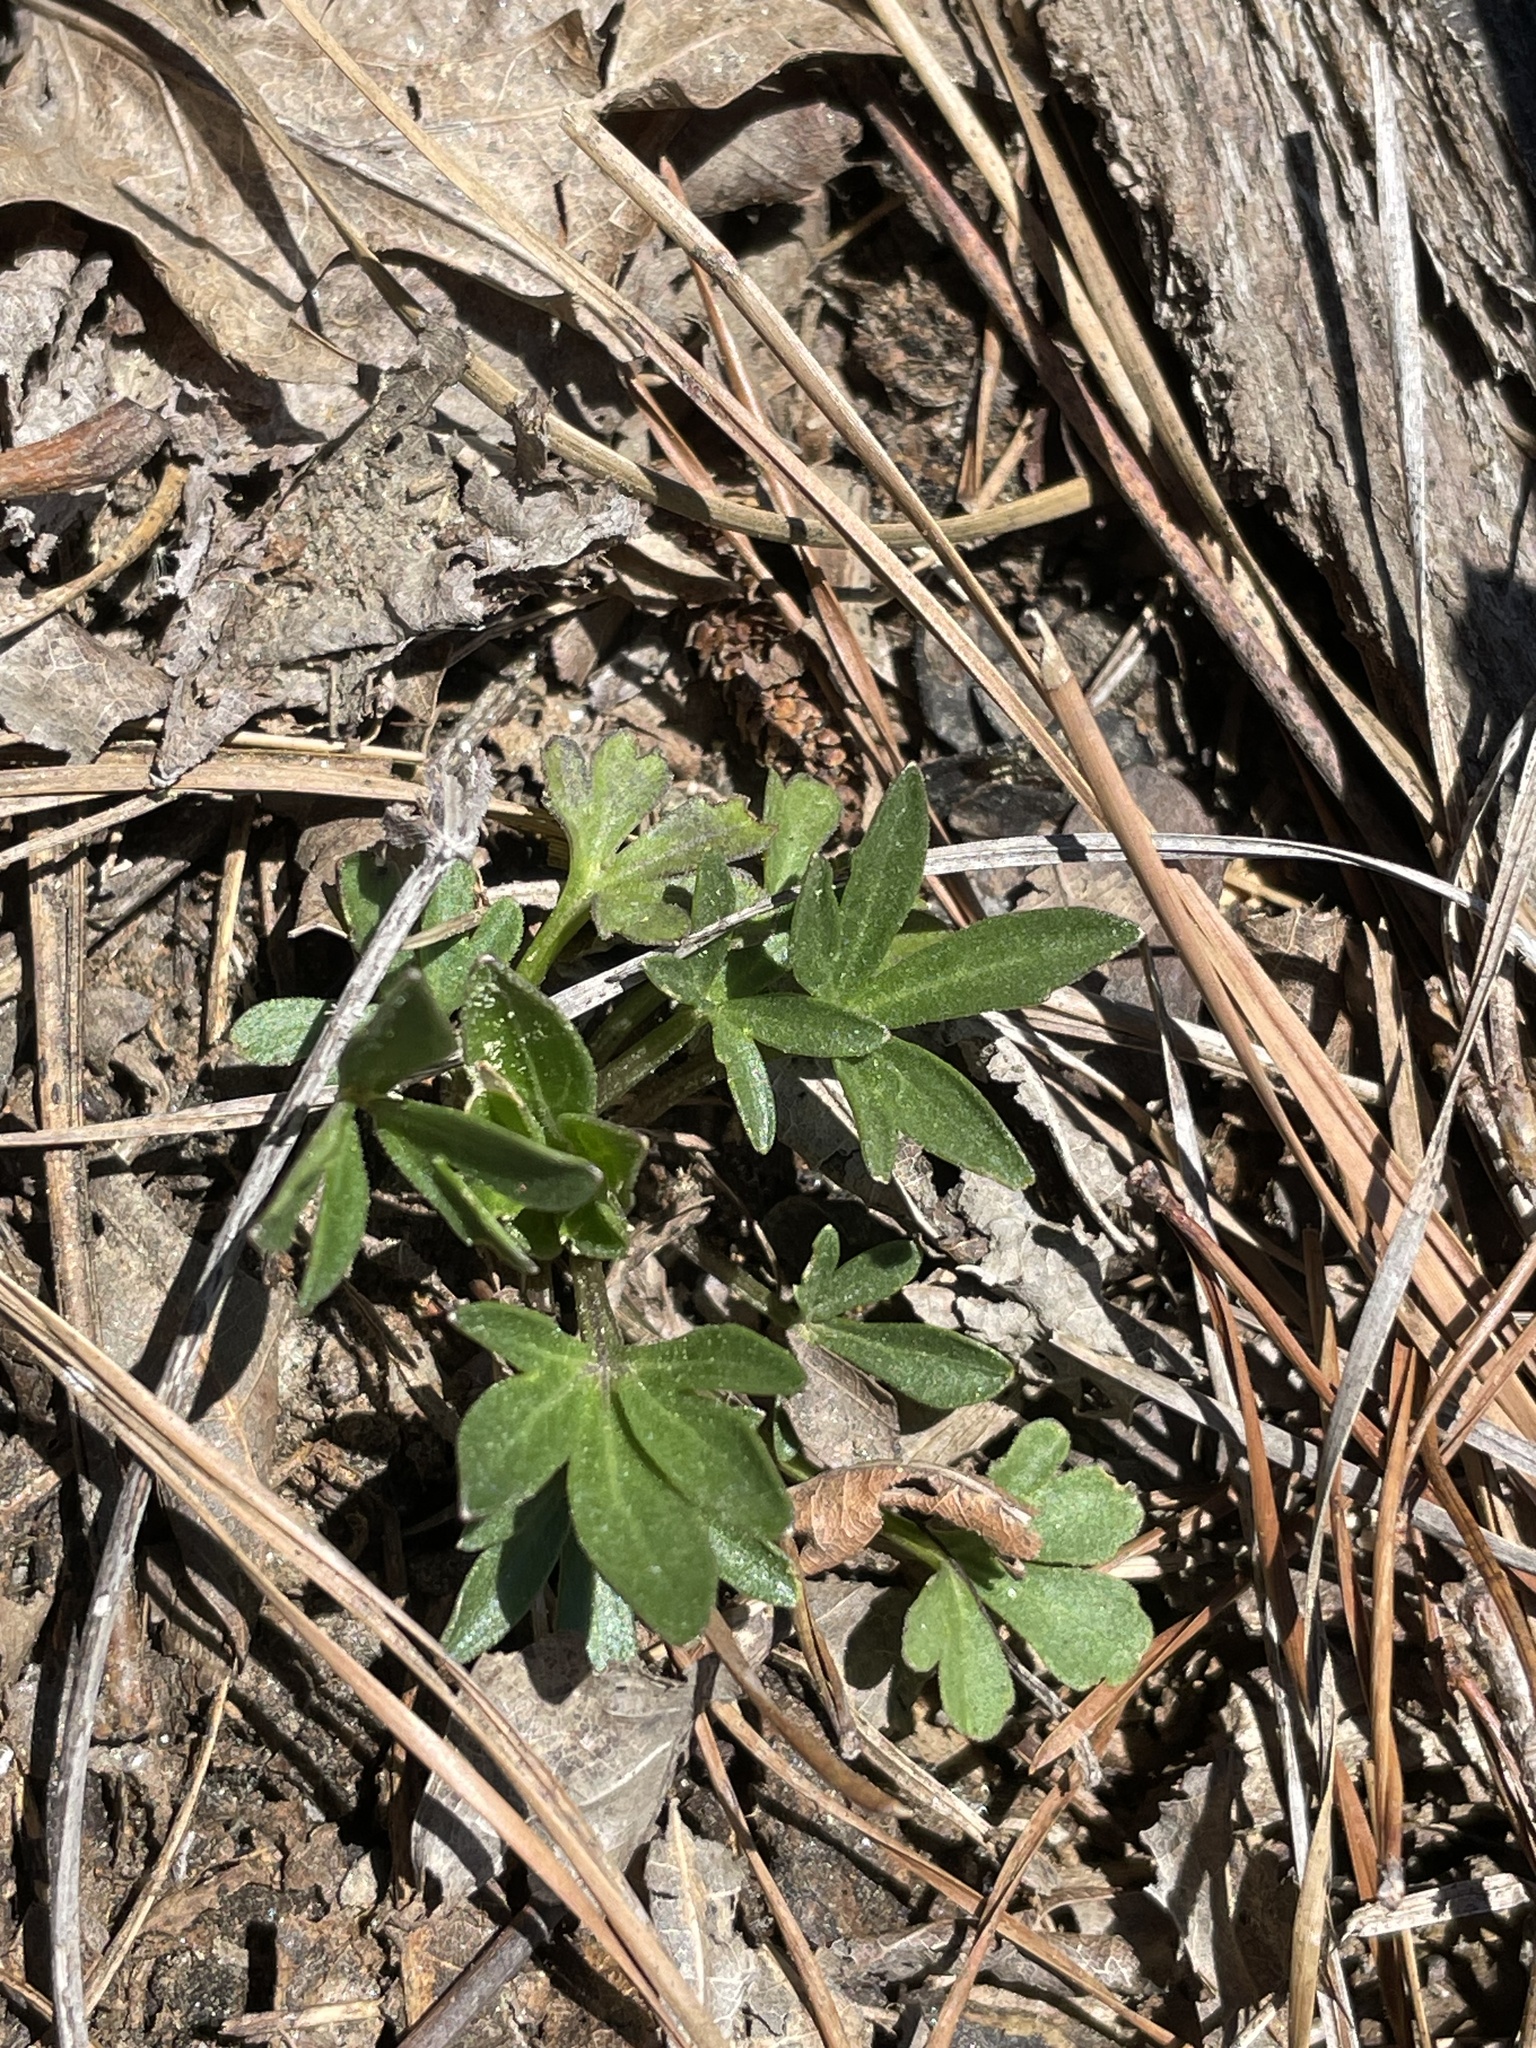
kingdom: Plantae
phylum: Tracheophyta
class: Magnoliopsida
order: Malpighiales
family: Violaceae
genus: Viola
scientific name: Viola pedata
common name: Pansy violet
